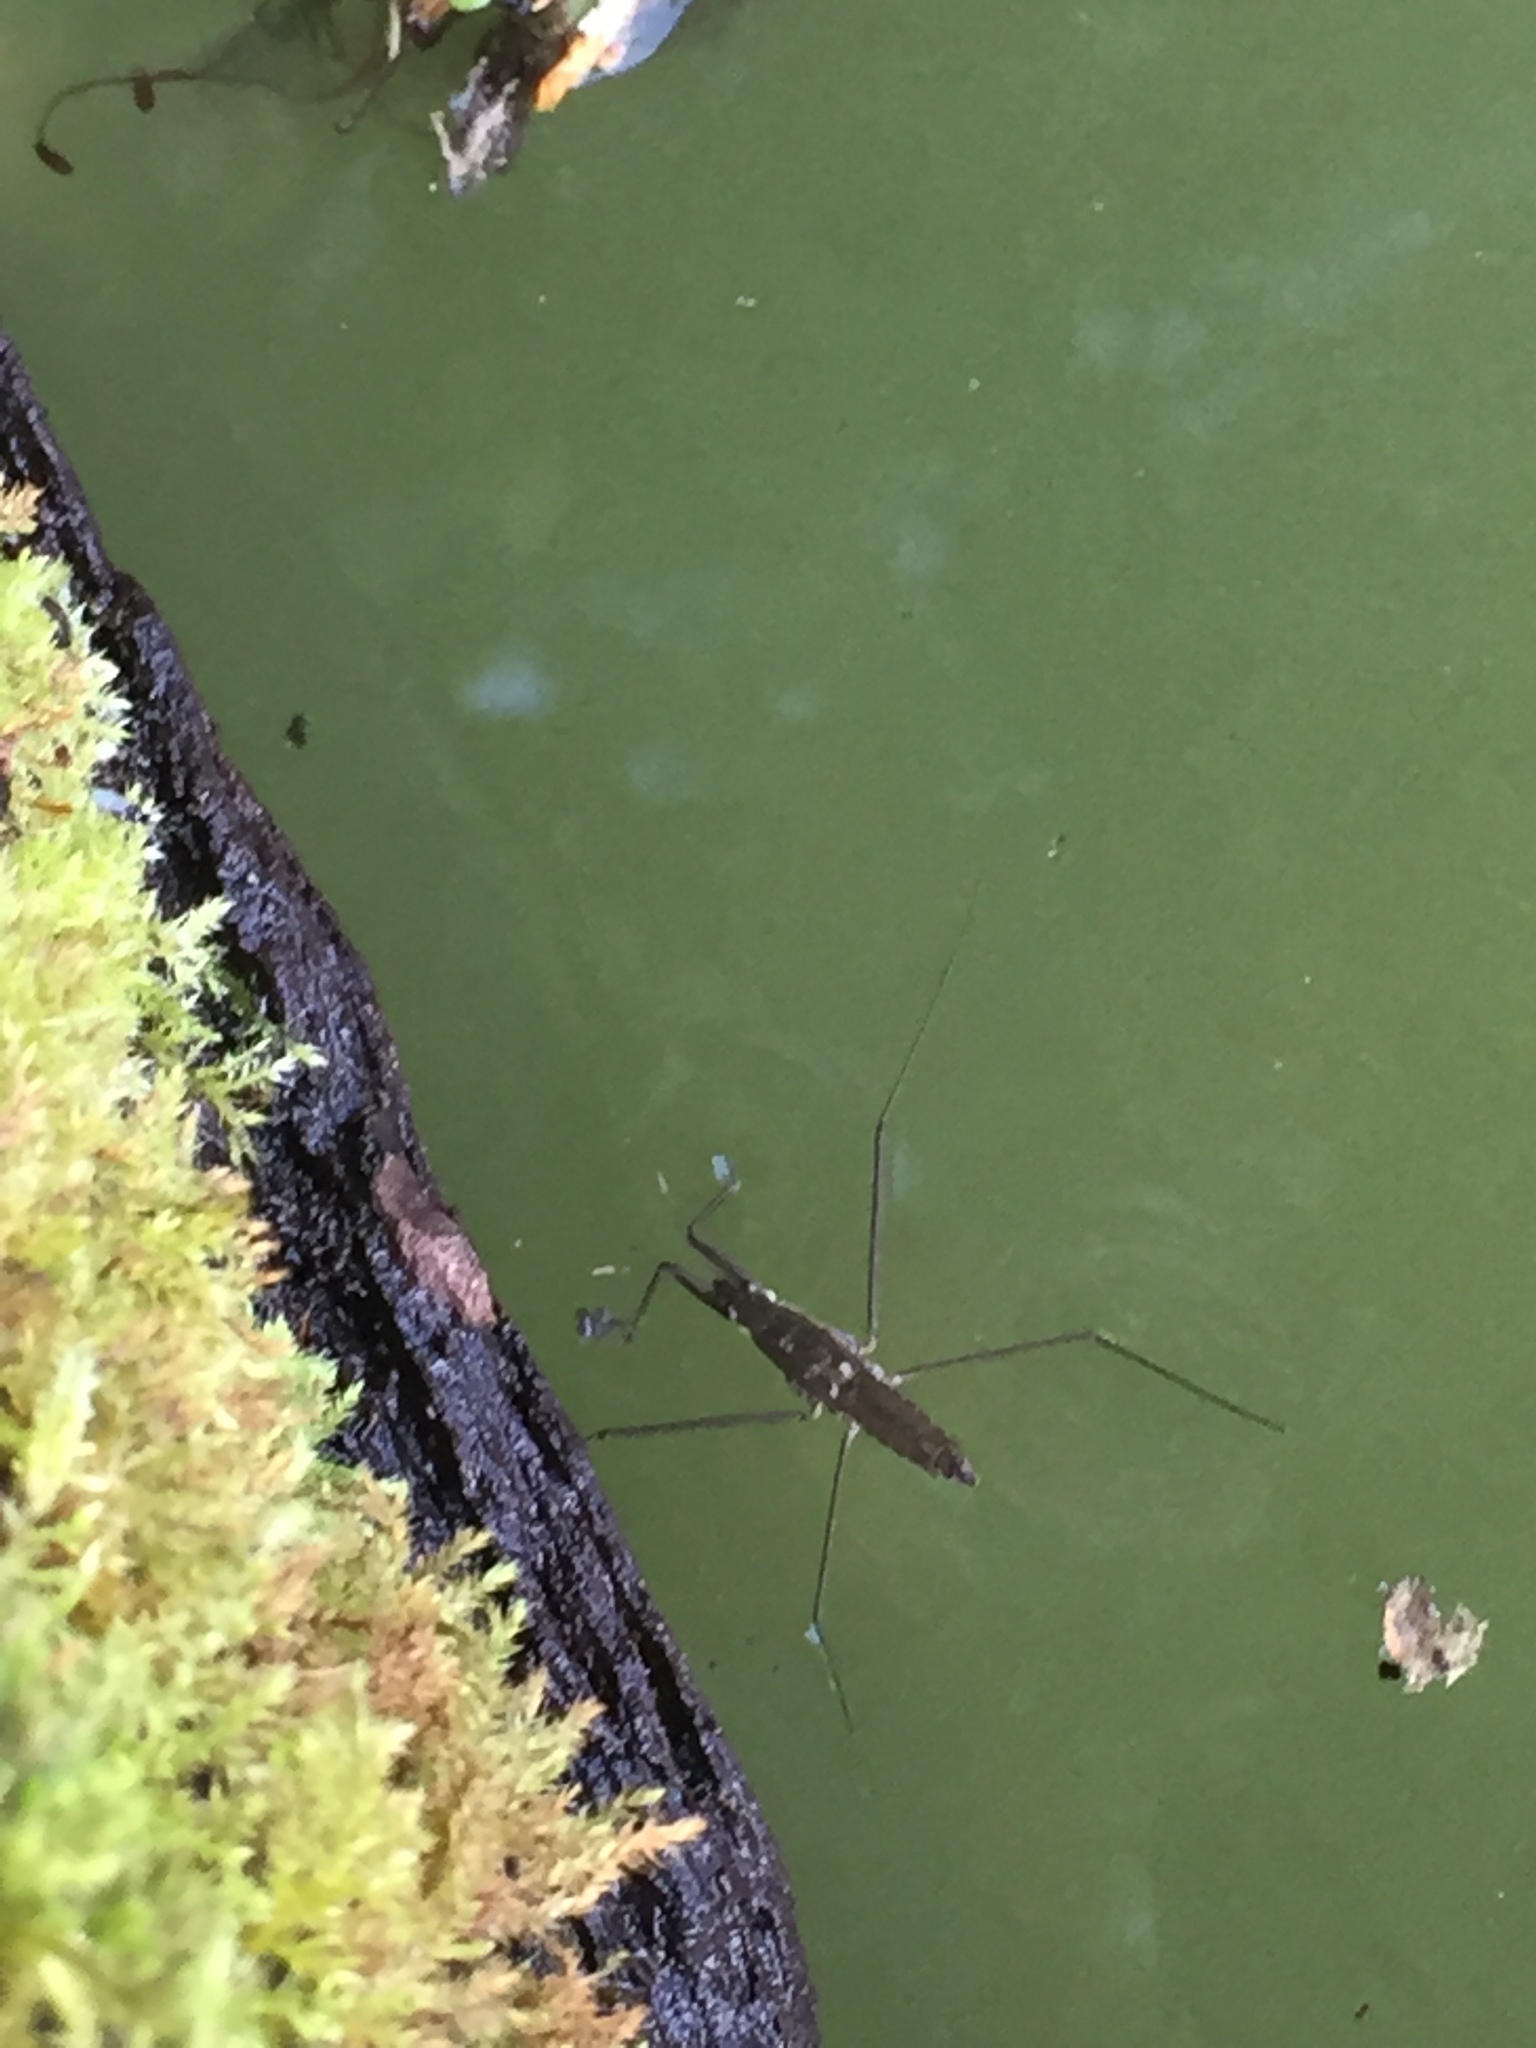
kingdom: Animalia
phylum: Arthropoda
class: Insecta
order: Hemiptera
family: Gerridae
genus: Aquarius
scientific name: Aquarius remigis
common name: Common water strider
